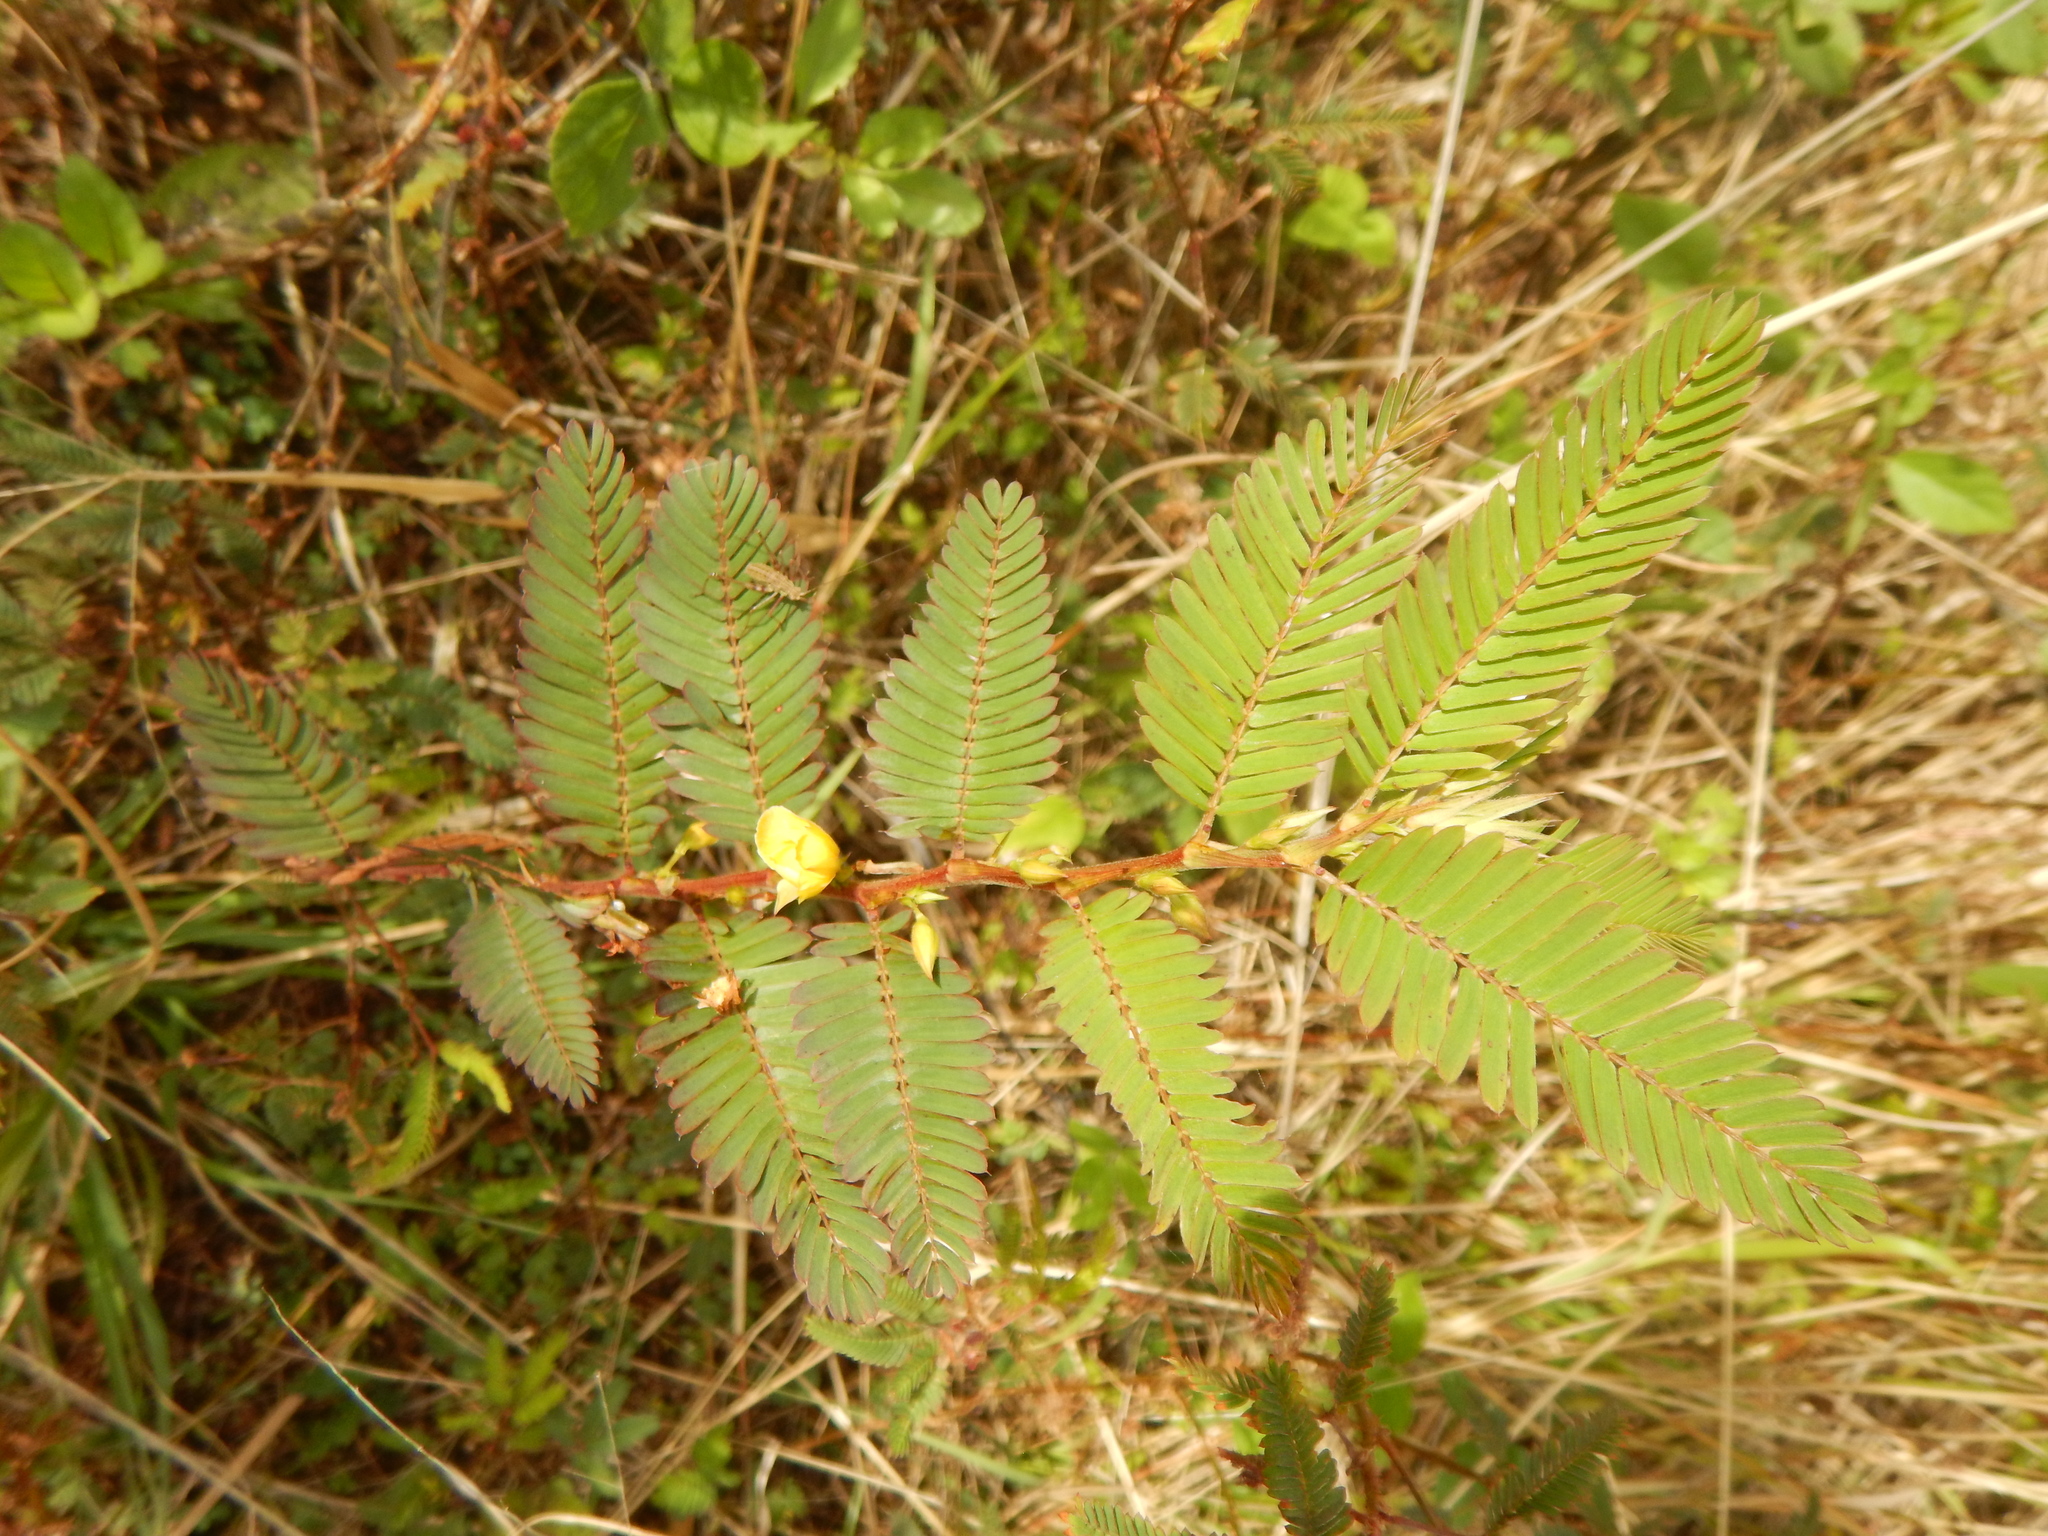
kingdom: Plantae
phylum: Tracheophyta
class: Magnoliopsida
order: Fabales
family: Fabaceae
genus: Chamaecrista
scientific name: Chamaecrista nictitans
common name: Sensitive cassia
